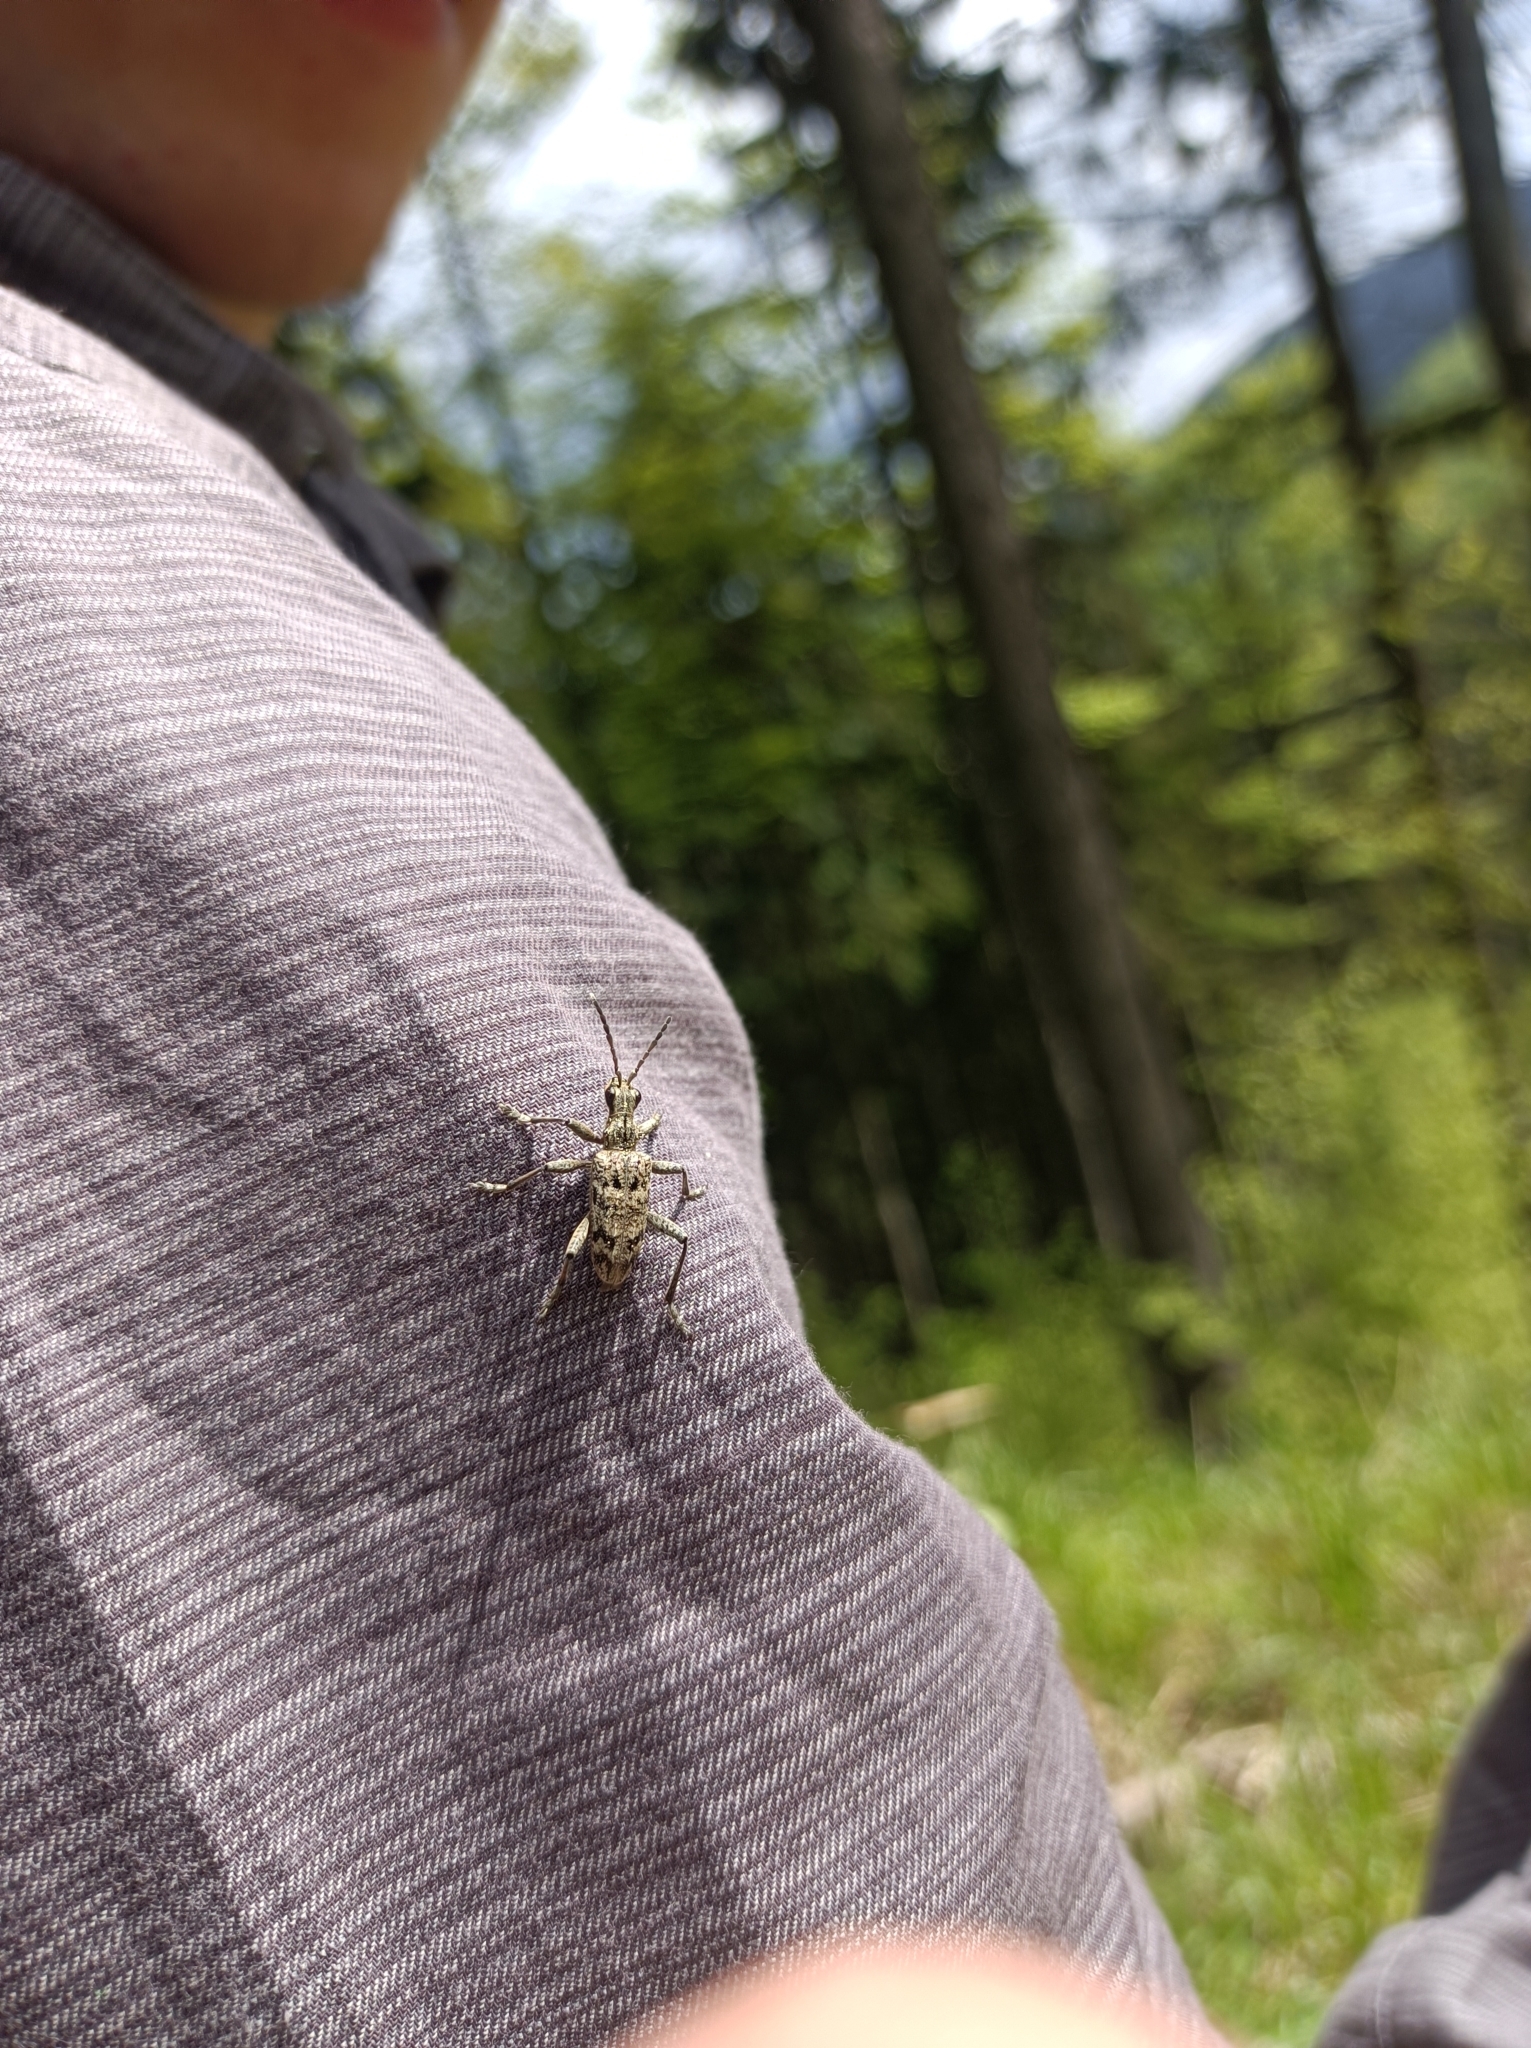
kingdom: Animalia
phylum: Arthropoda
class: Insecta
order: Coleoptera
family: Cerambycidae
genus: Rhagium
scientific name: Rhagium inquisitor
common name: Ribbed pine borer
